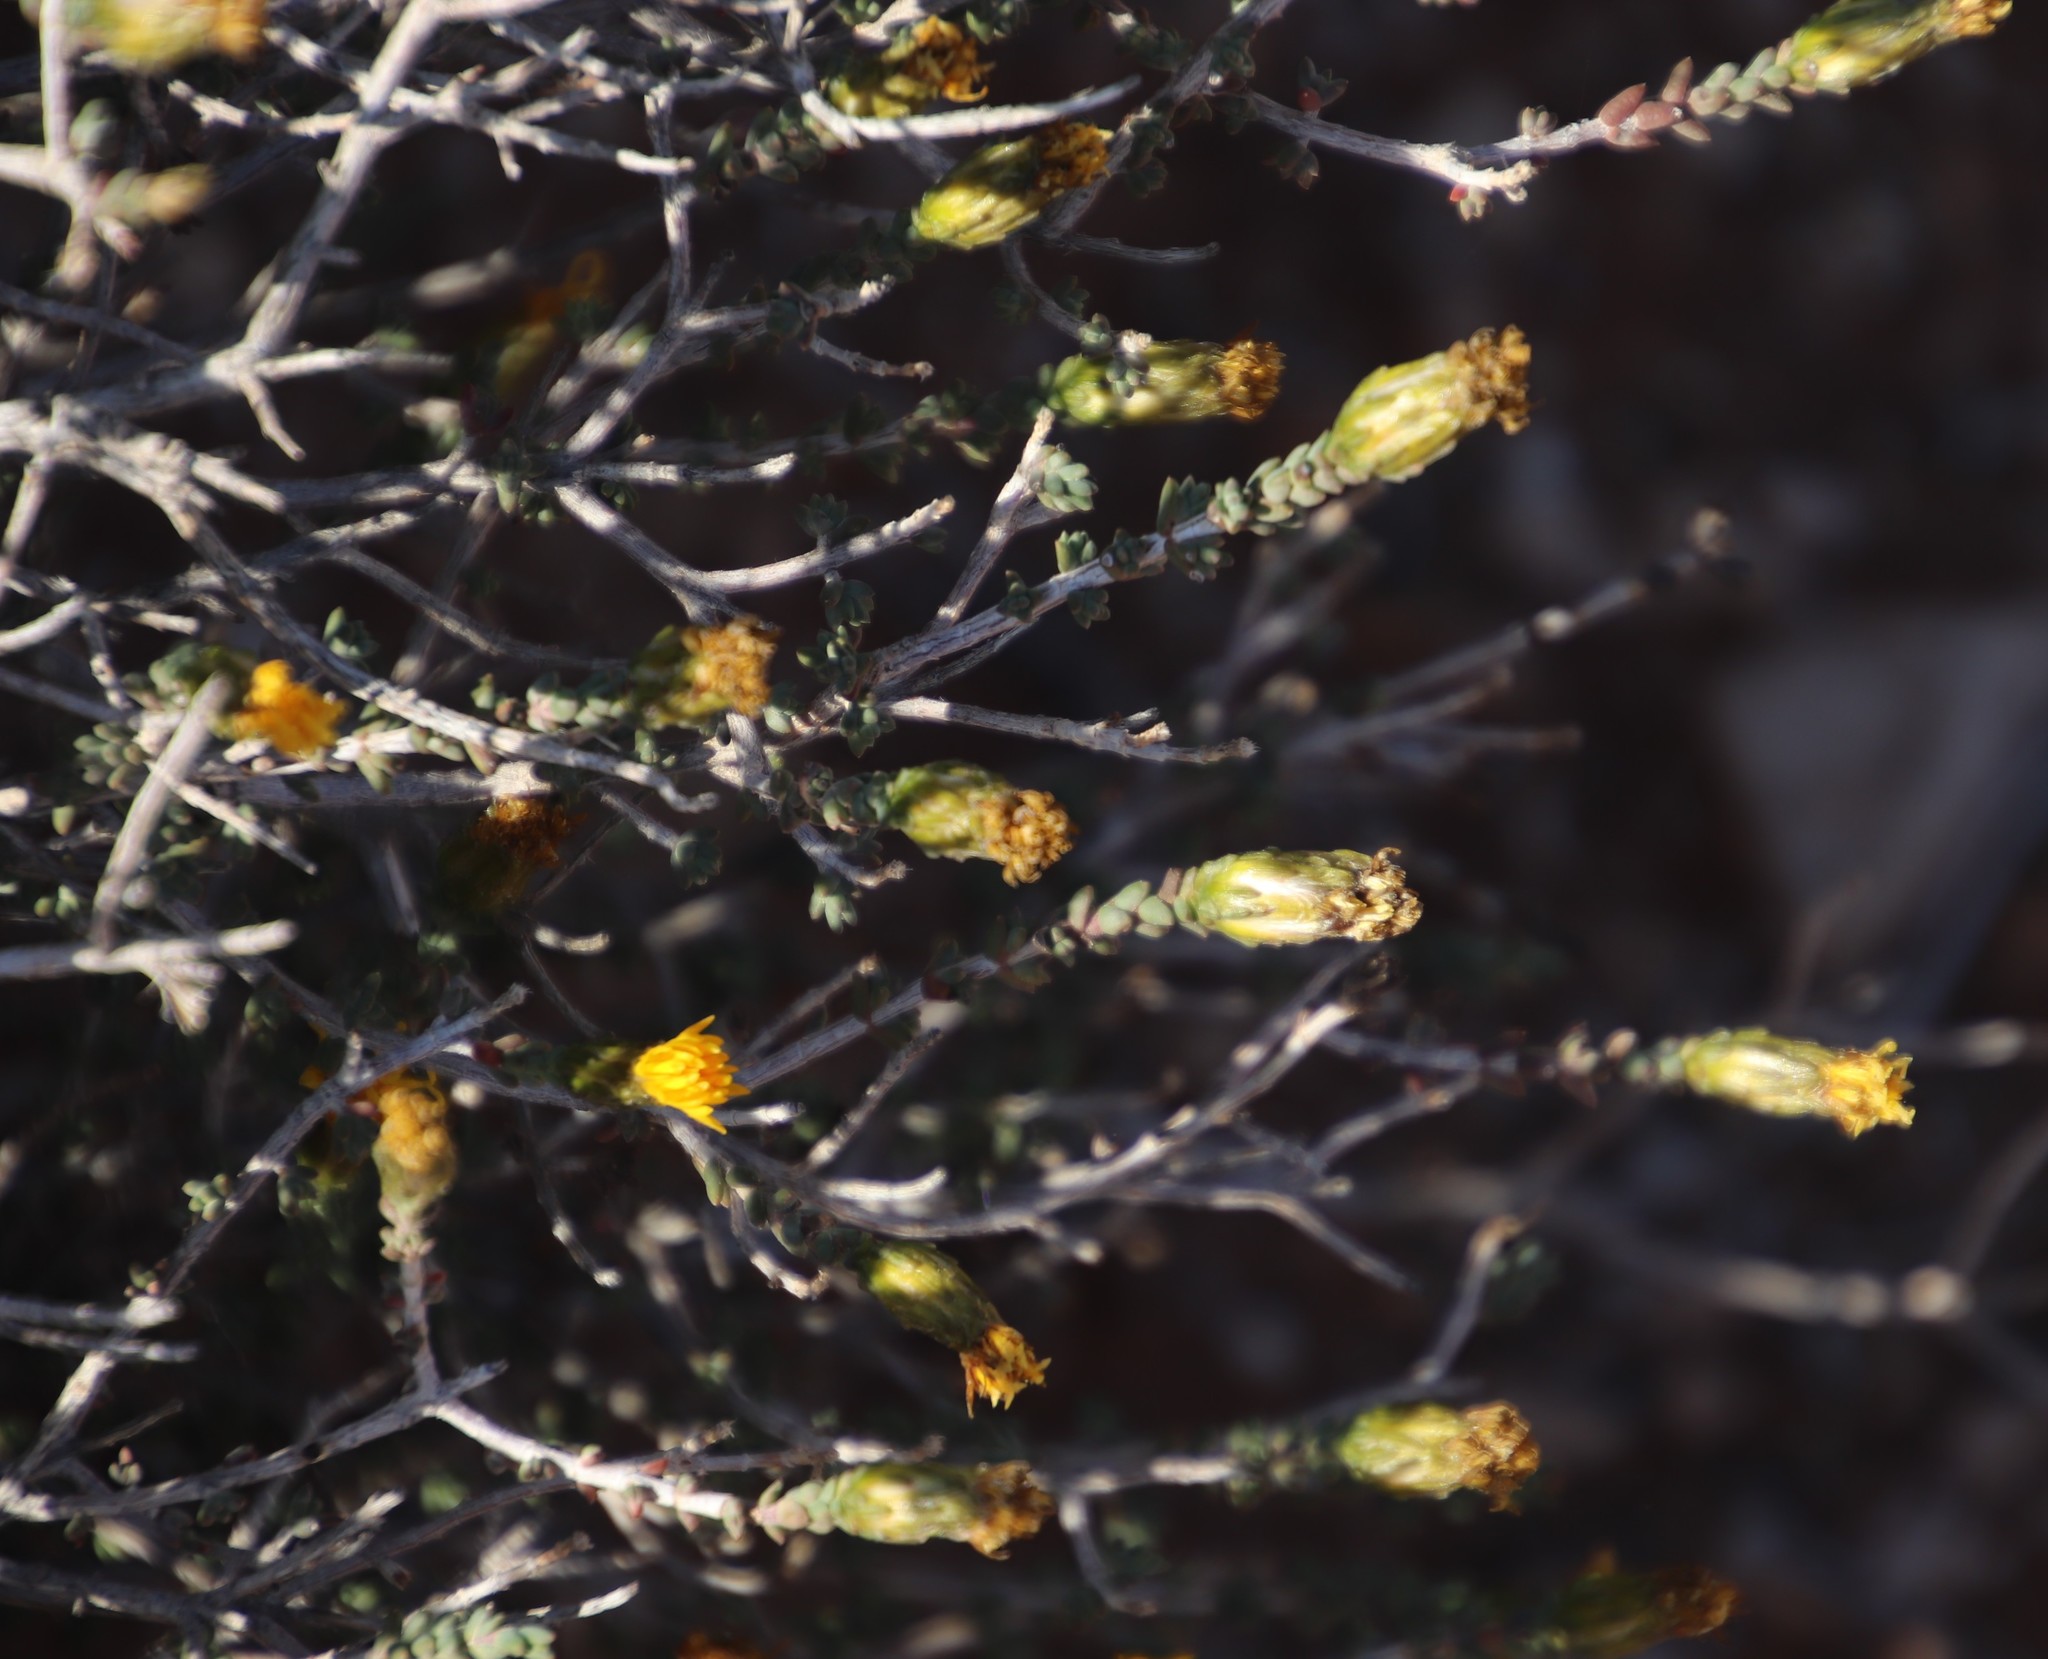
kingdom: Plantae
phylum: Tracheophyta
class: Magnoliopsida
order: Asterales
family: Asteraceae
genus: Pteronia
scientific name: Pteronia glomerata
